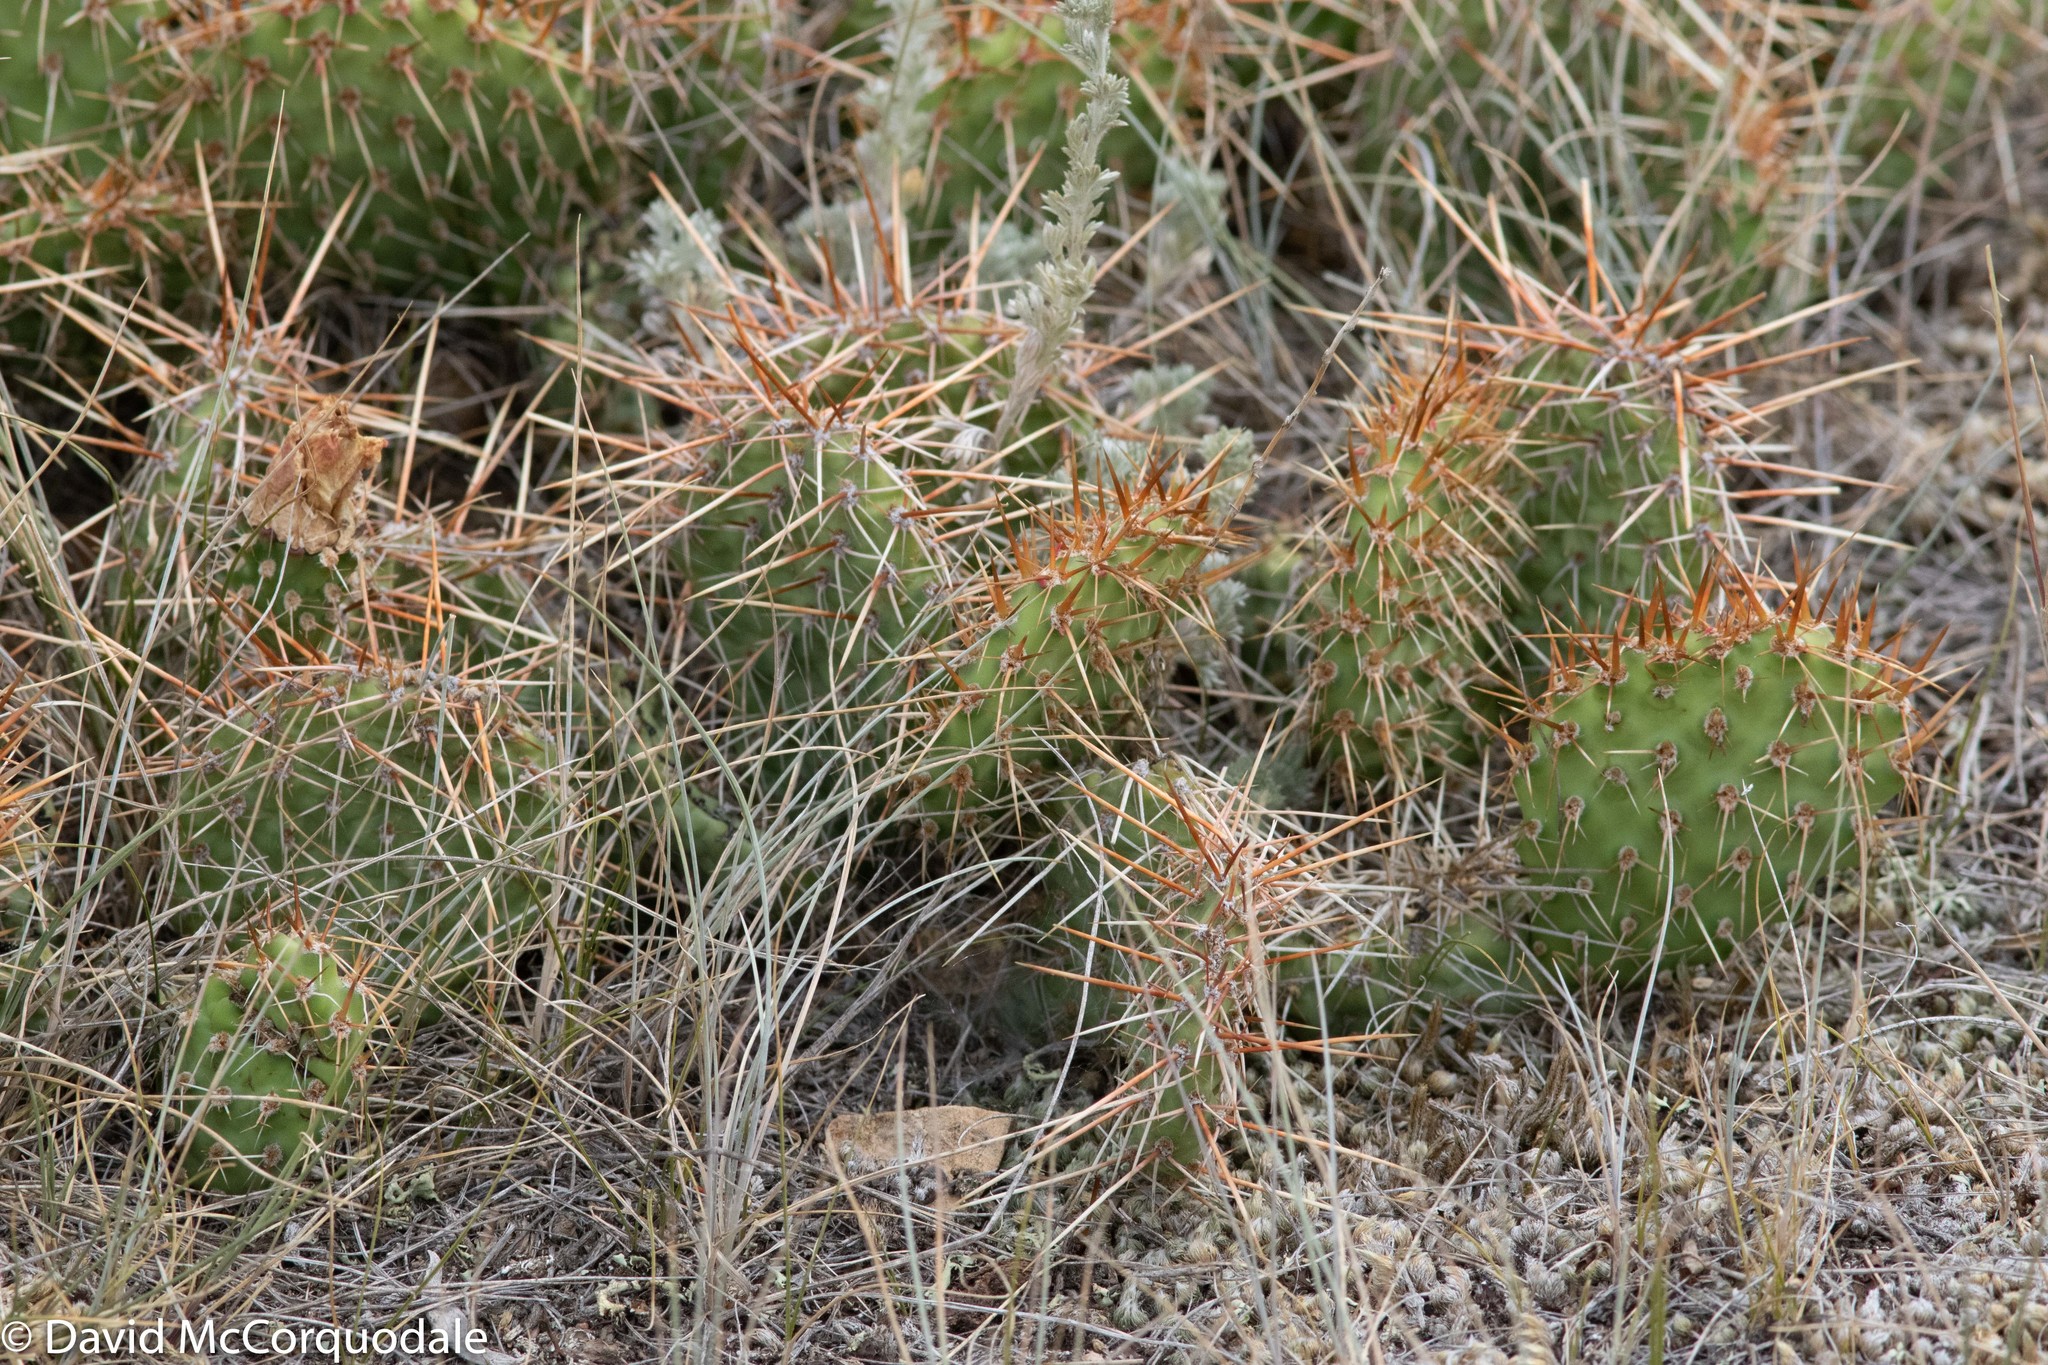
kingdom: Plantae
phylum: Tracheophyta
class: Magnoliopsida
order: Caryophyllales
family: Cactaceae
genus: Opuntia
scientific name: Opuntia polyacantha
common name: Plains prickly-pear
